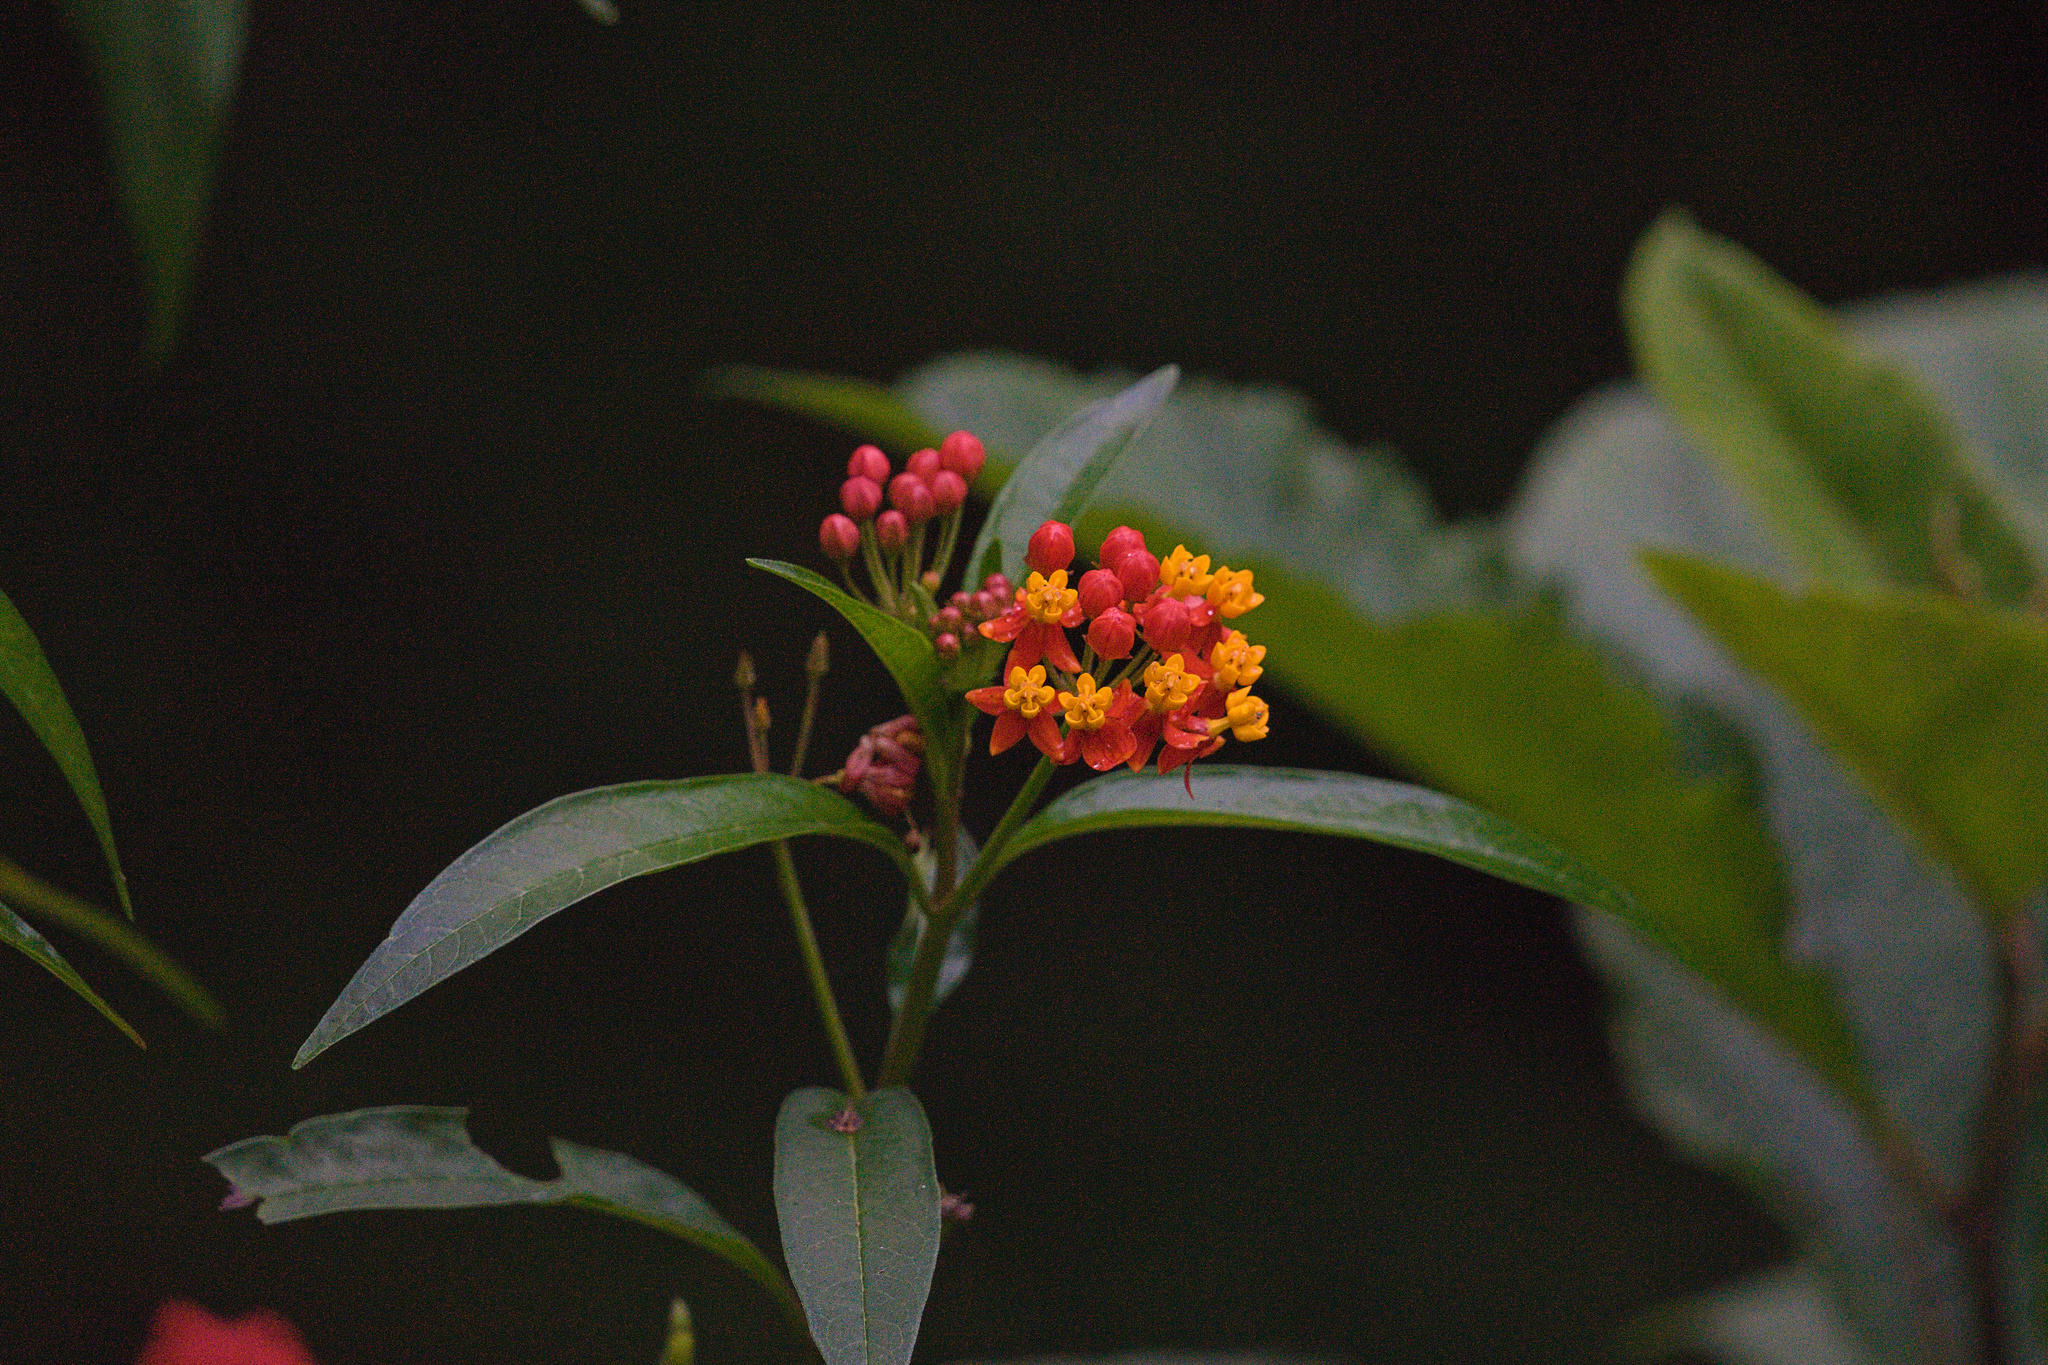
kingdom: Plantae
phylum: Tracheophyta
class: Magnoliopsida
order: Gentianales
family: Apocynaceae
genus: Asclepias
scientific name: Asclepias curassavica
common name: Bloodflower
